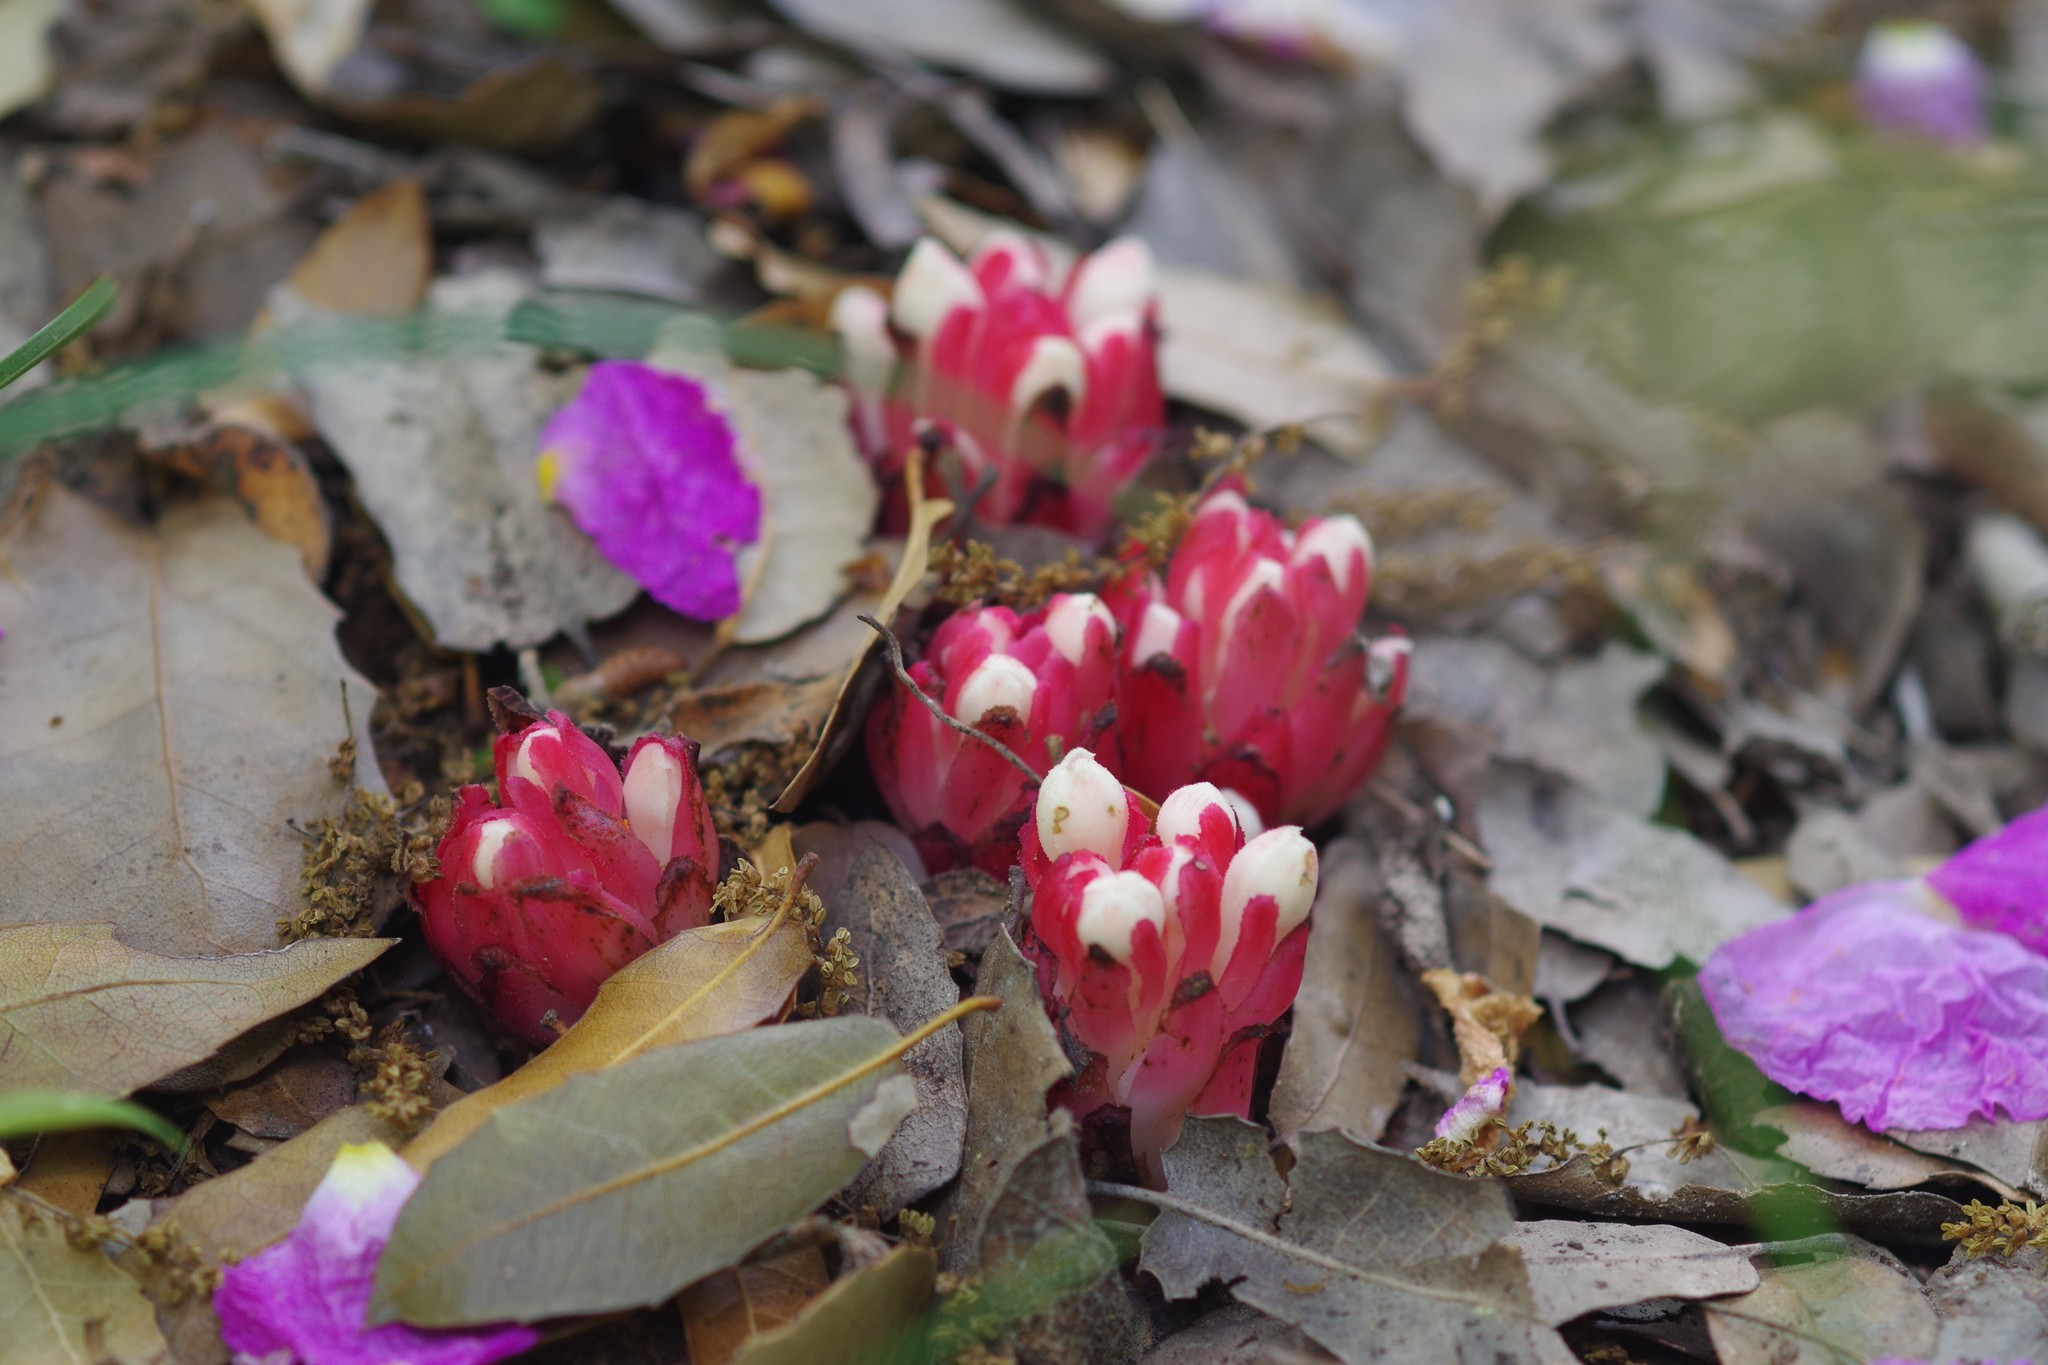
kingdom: Plantae
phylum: Tracheophyta
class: Magnoliopsida
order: Malvales
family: Cytinaceae
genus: Cytinus
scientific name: Cytinus ruber
